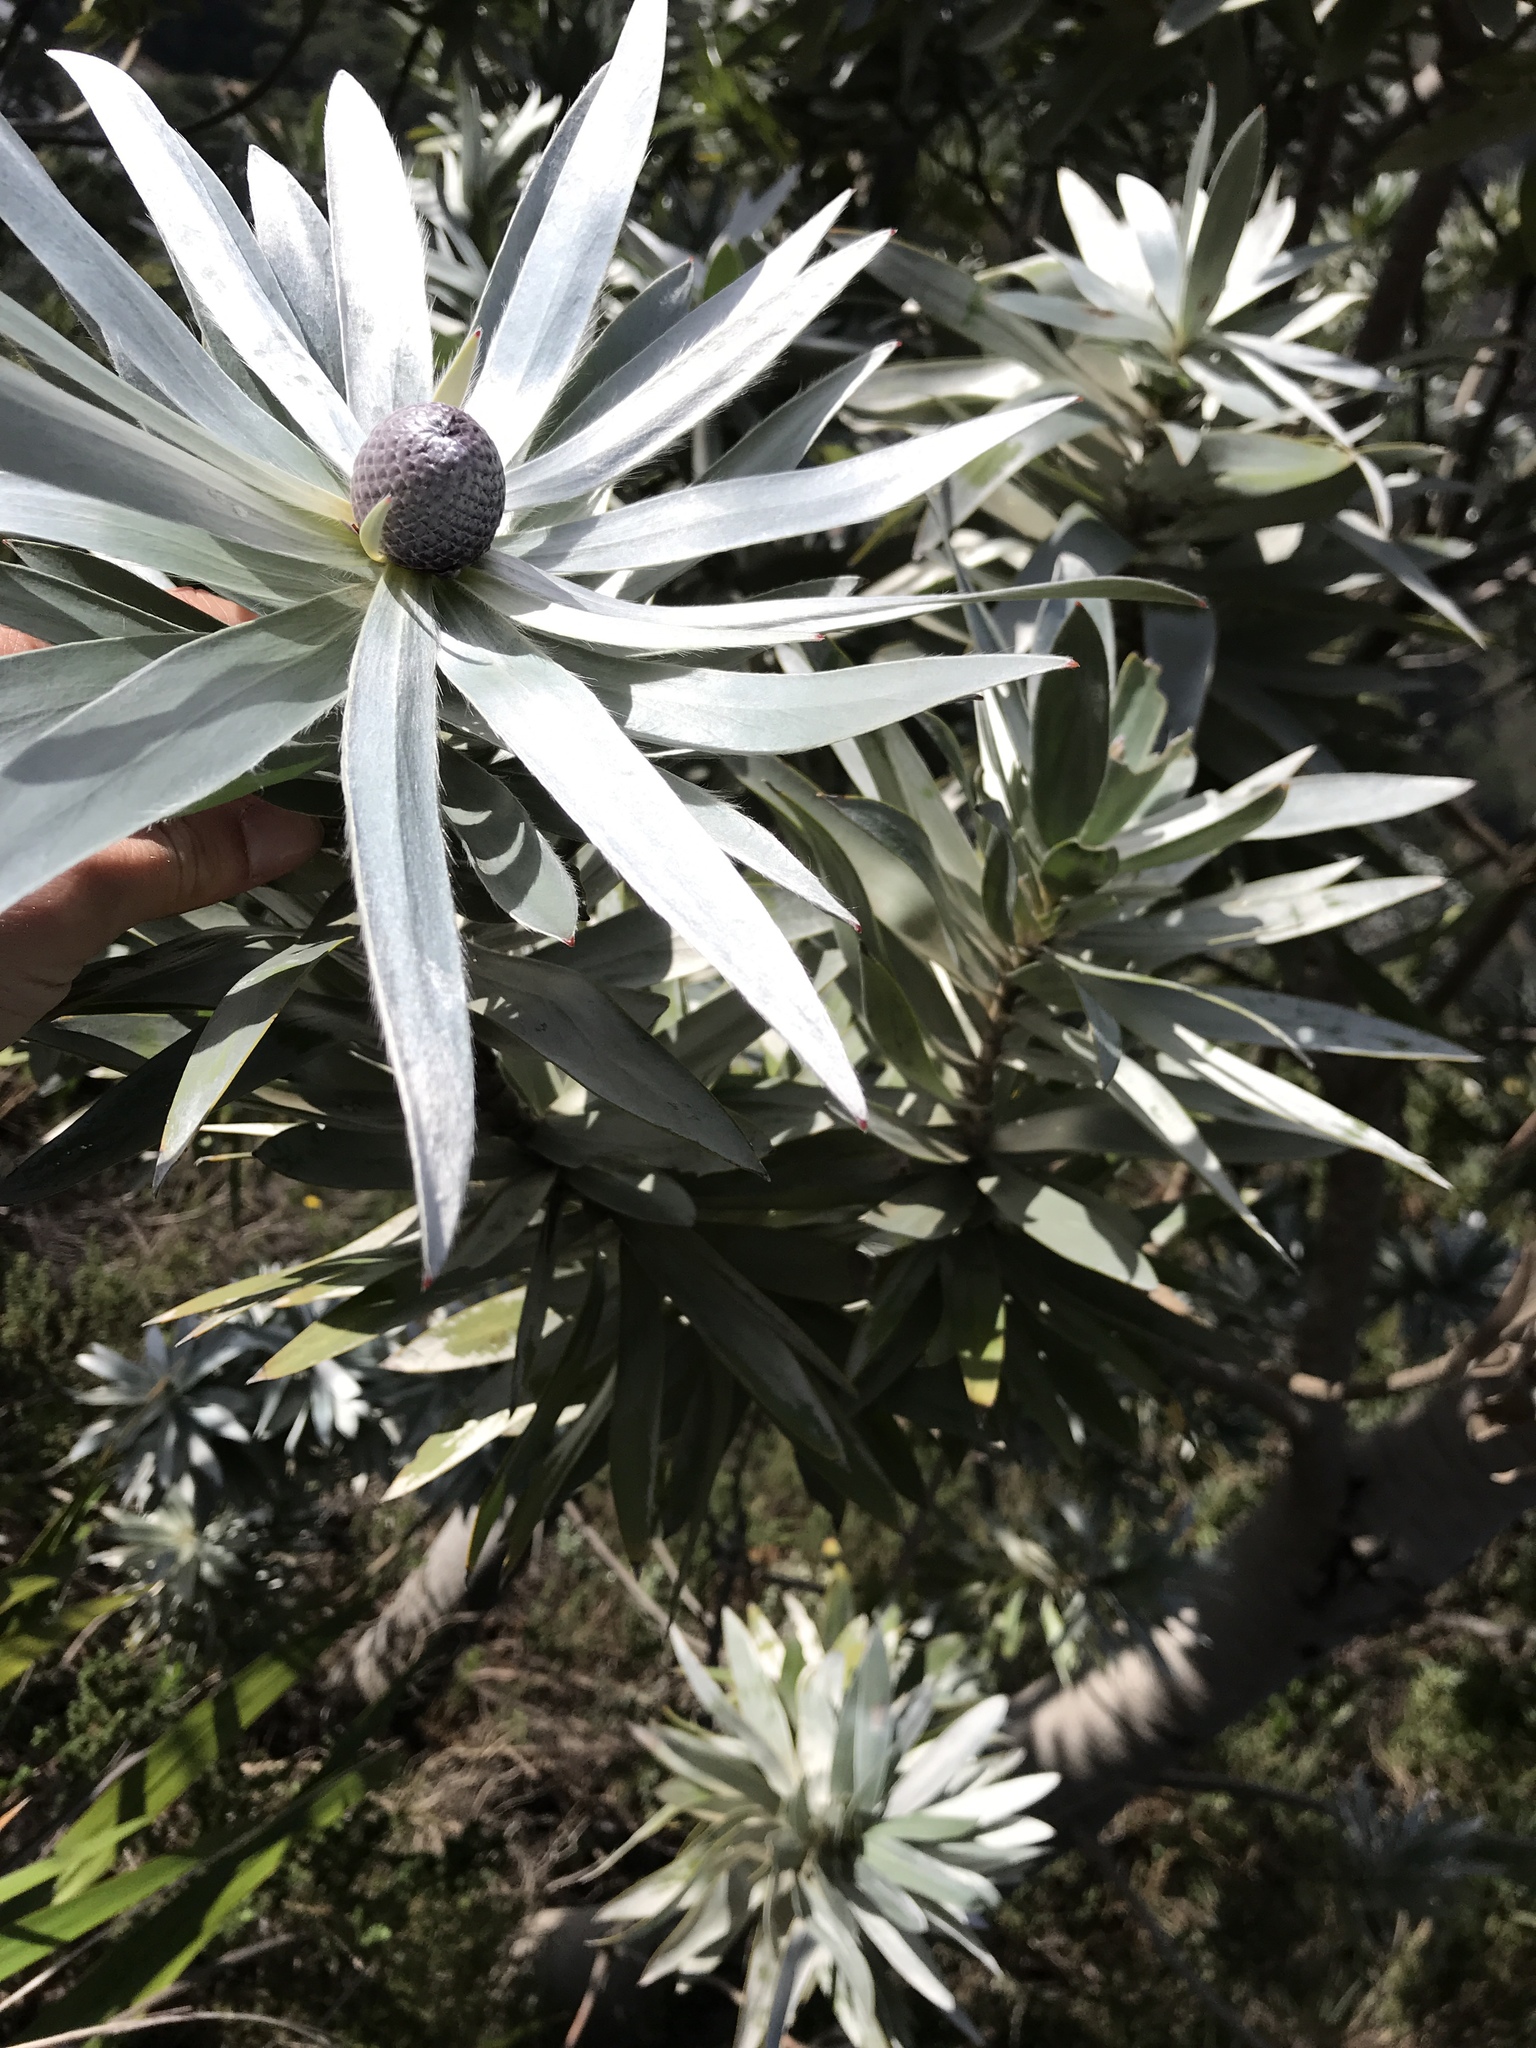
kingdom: Plantae
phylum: Tracheophyta
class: Magnoliopsida
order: Proteales
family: Proteaceae
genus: Leucadendron
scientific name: Leucadendron argenteum
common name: Cape silver tree
